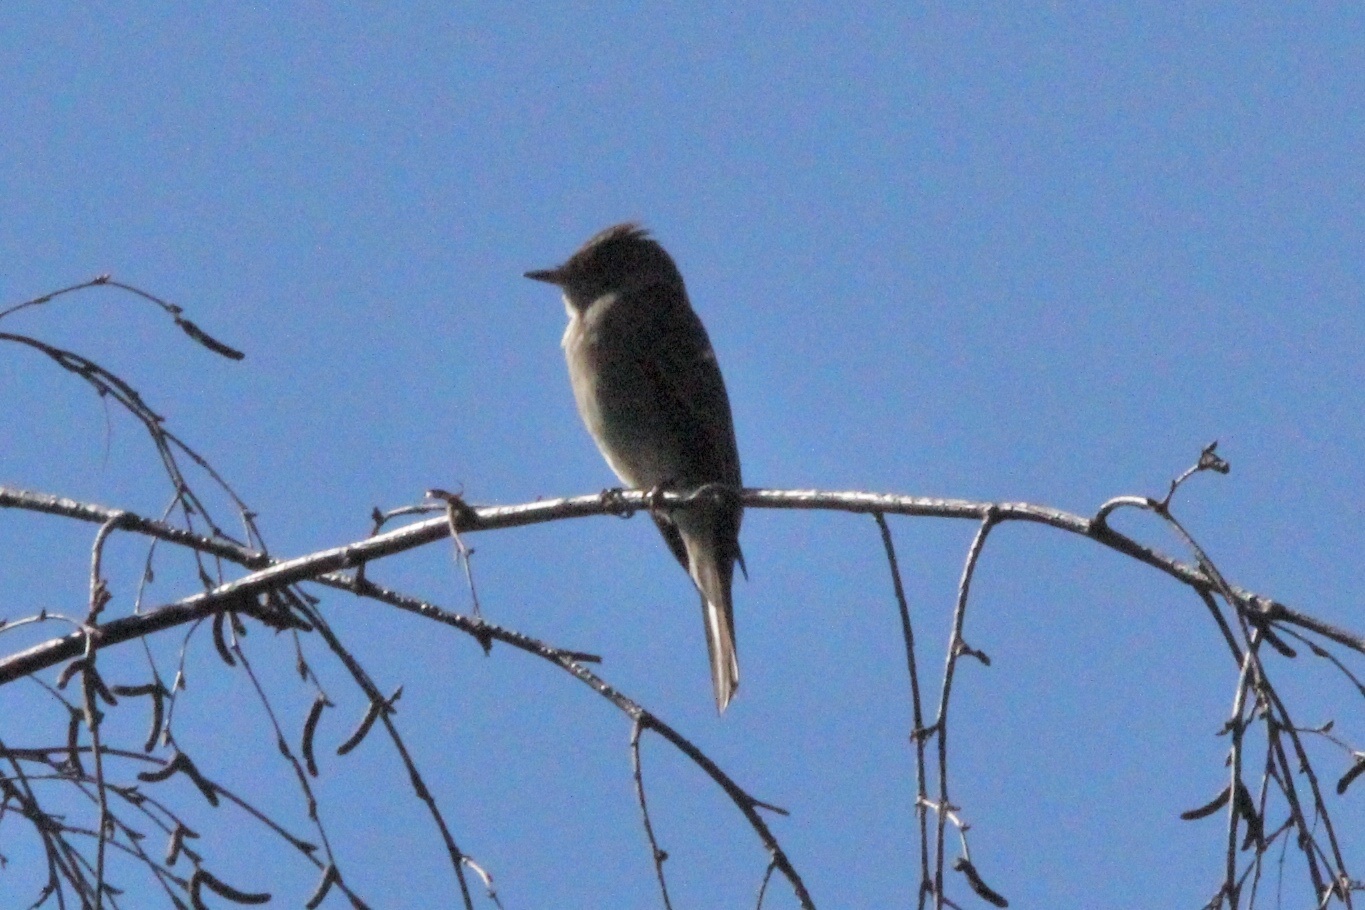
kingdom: Animalia
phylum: Chordata
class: Aves
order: Passeriformes
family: Tyrannidae
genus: Contopus
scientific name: Contopus sordidulus
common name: Western wood-pewee
